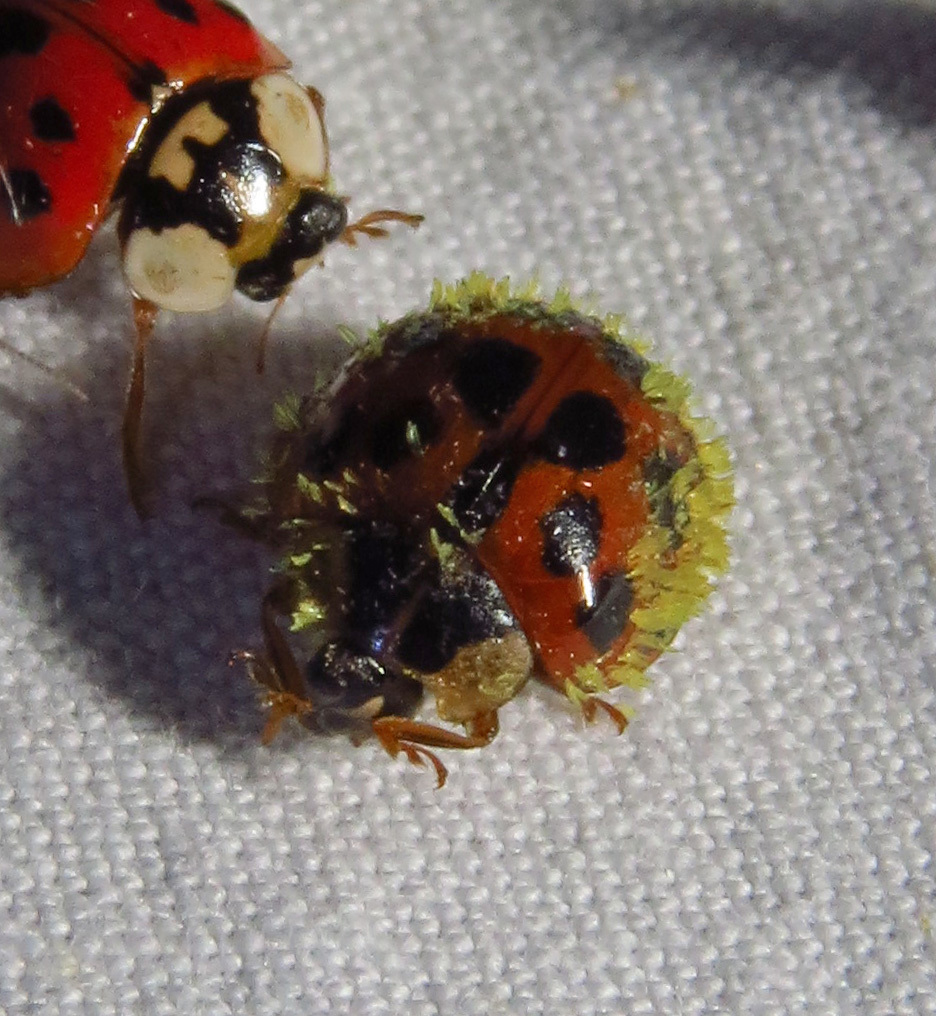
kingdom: Fungi
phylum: Ascomycota
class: Laboulbeniomycetes
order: Laboulbeniales
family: Laboulbeniaceae
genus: Hesperomyces
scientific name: Hesperomyces harmoniae
